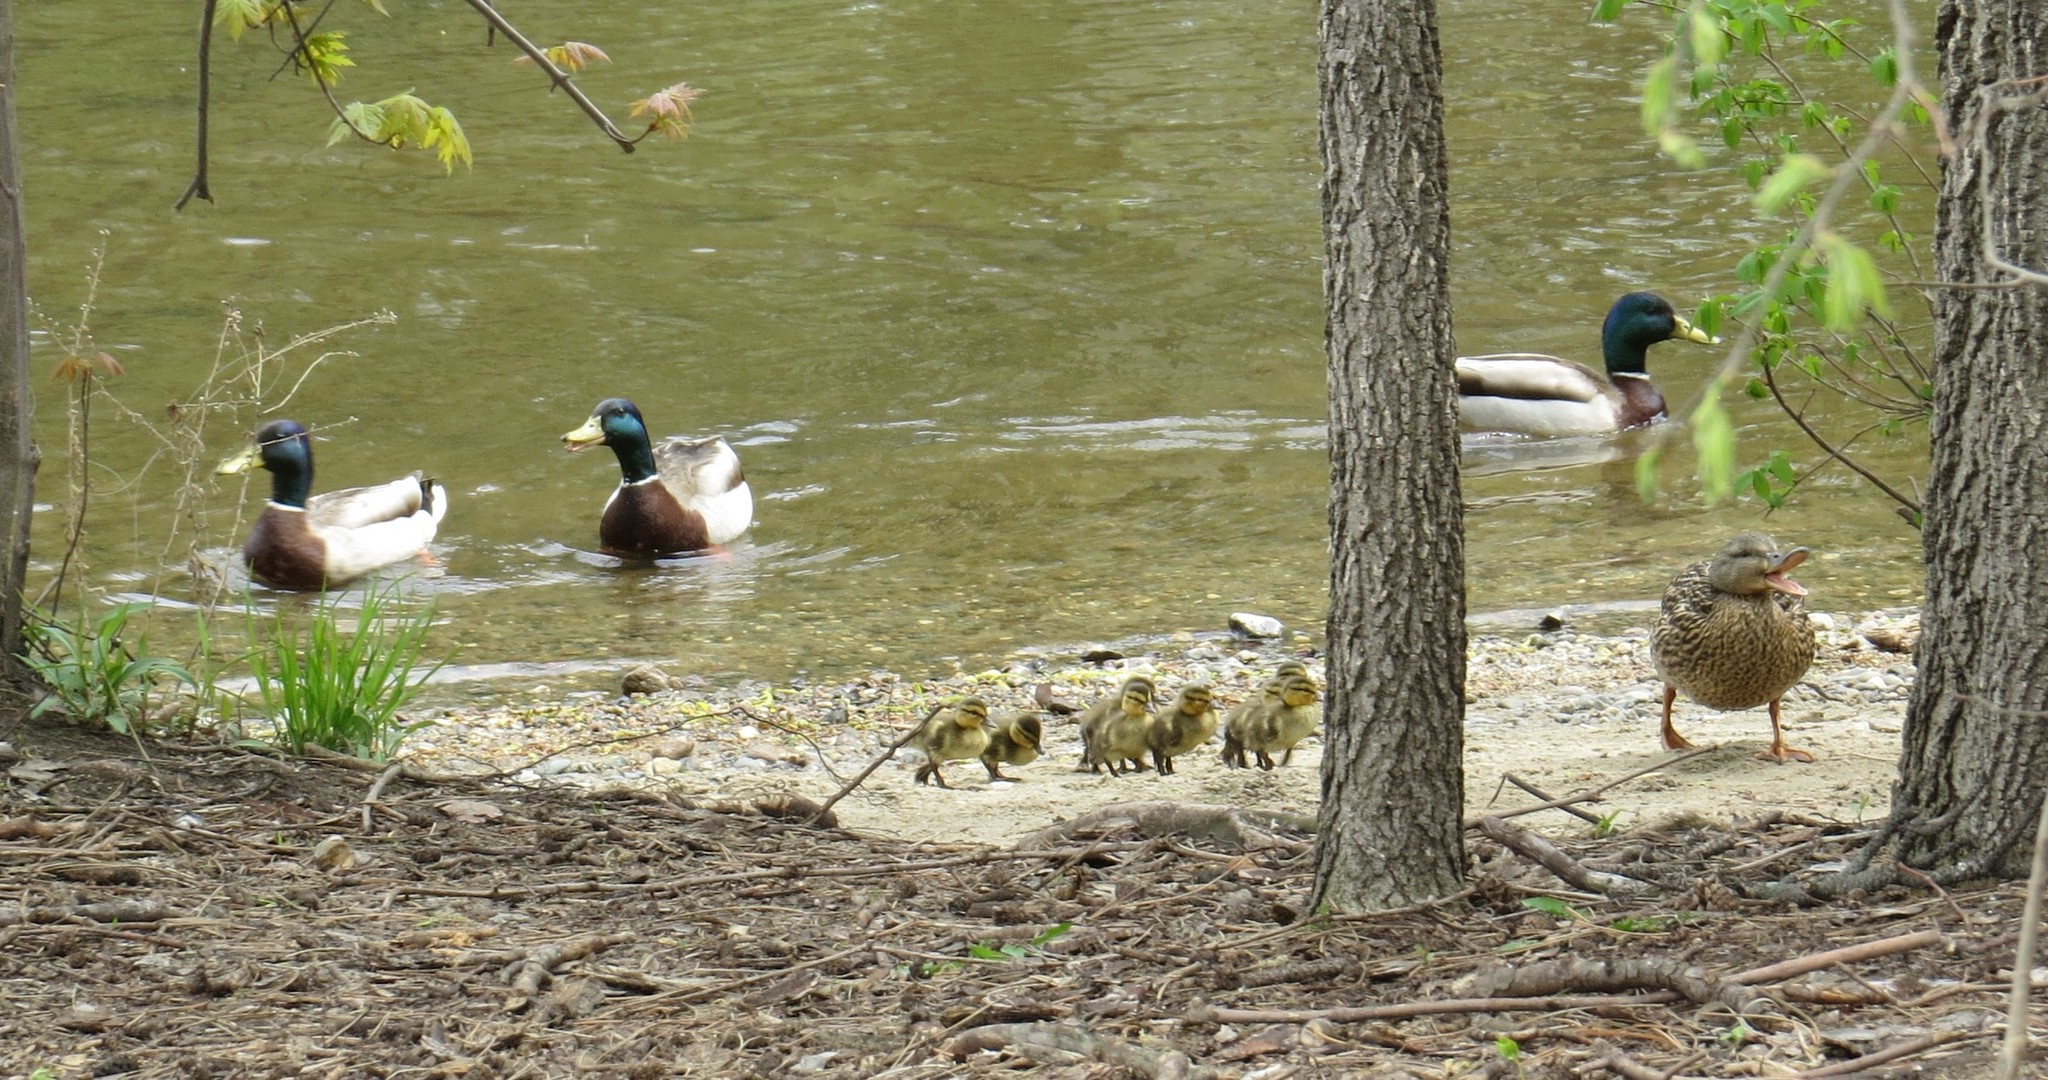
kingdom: Animalia
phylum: Chordata
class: Aves
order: Anseriformes
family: Anatidae
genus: Anas
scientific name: Anas platyrhynchos
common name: Mallard
